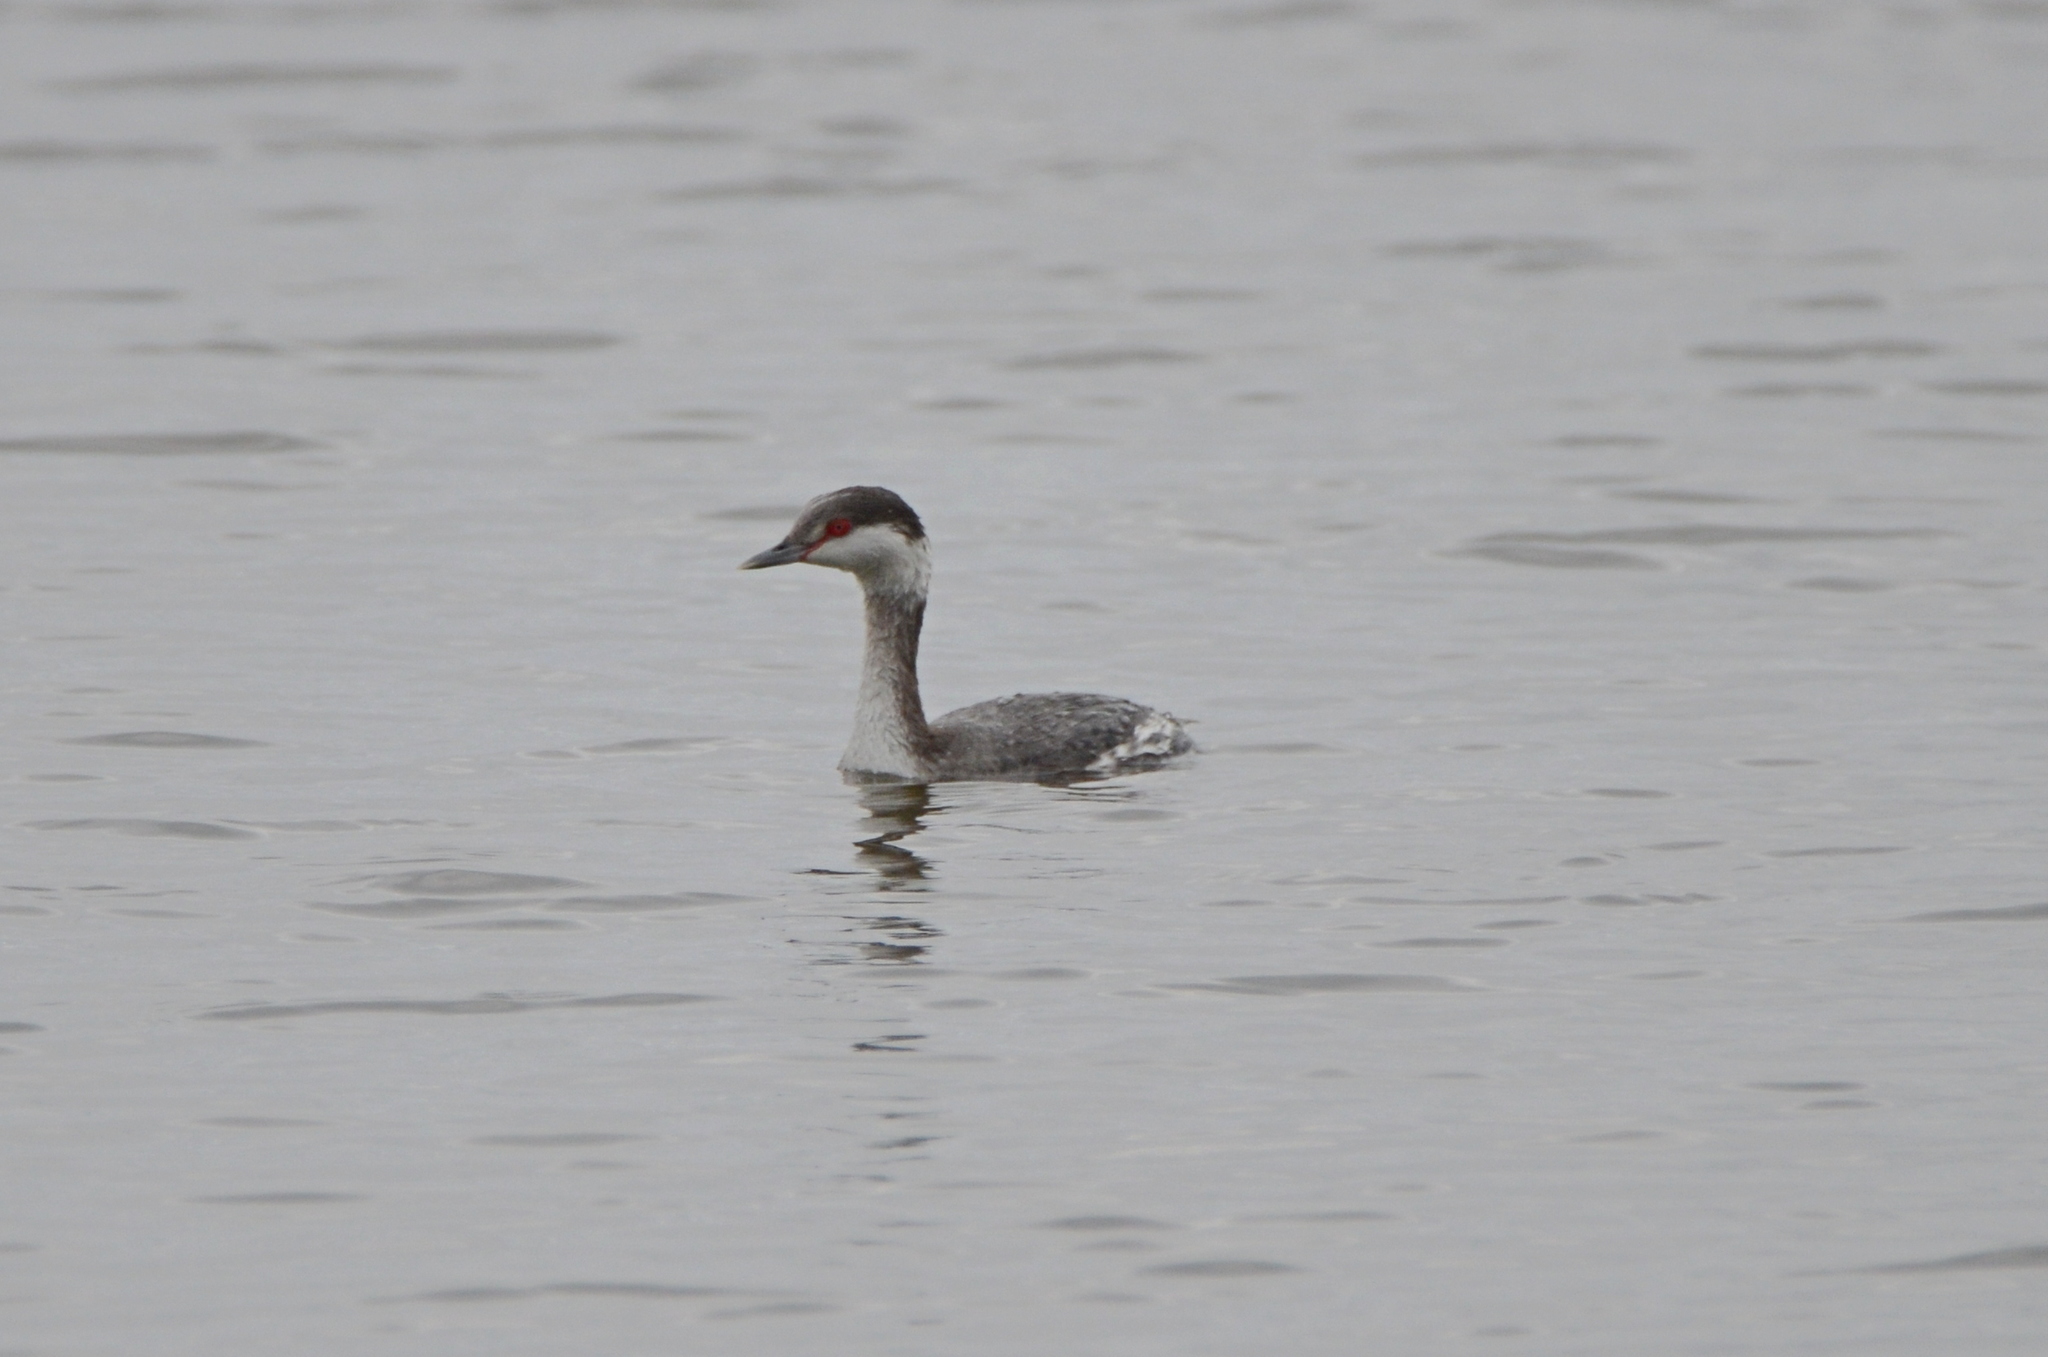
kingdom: Animalia
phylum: Chordata
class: Aves
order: Podicipediformes
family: Podicipedidae
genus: Podiceps
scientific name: Podiceps auritus
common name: Horned grebe
